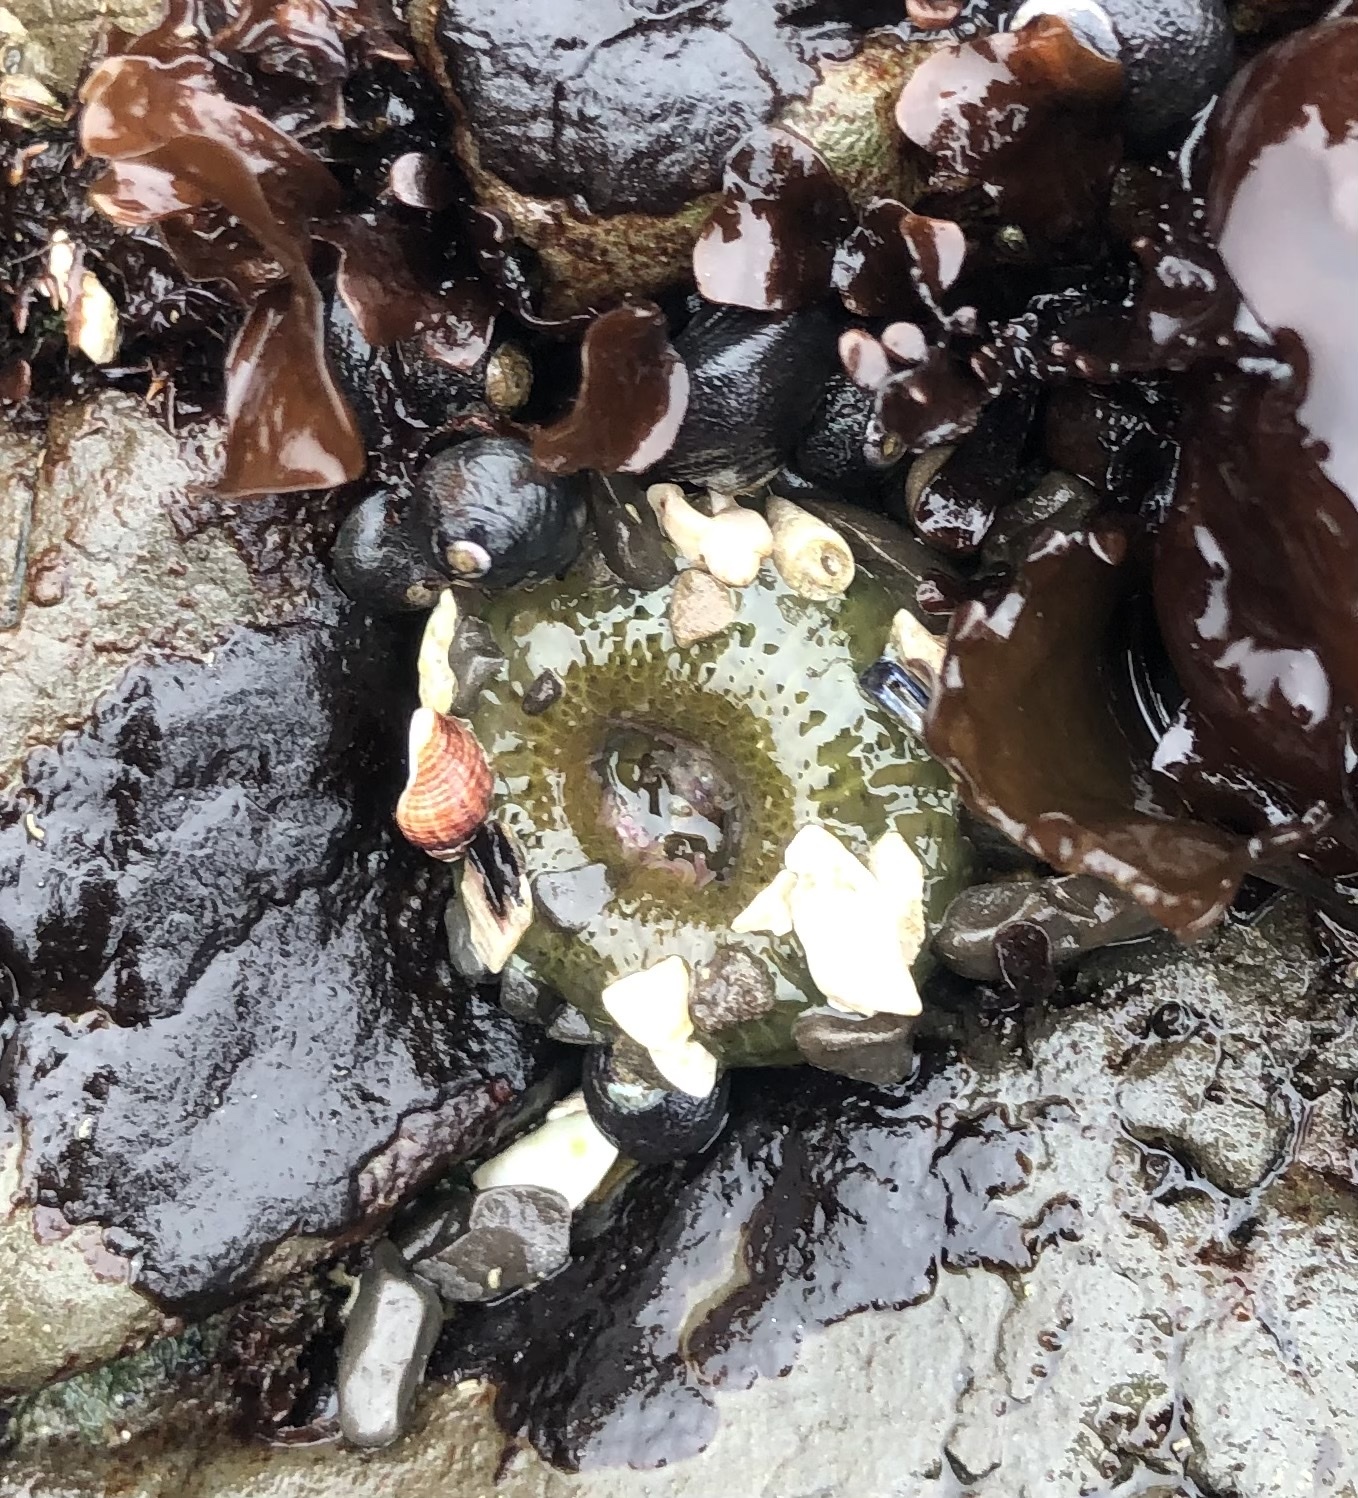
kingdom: Animalia
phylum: Cnidaria
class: Anthozoa
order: Actiniaria
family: Actiniidae
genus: Anthopleura
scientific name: Anthopleura xanthogrammica
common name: Giant green anemone
